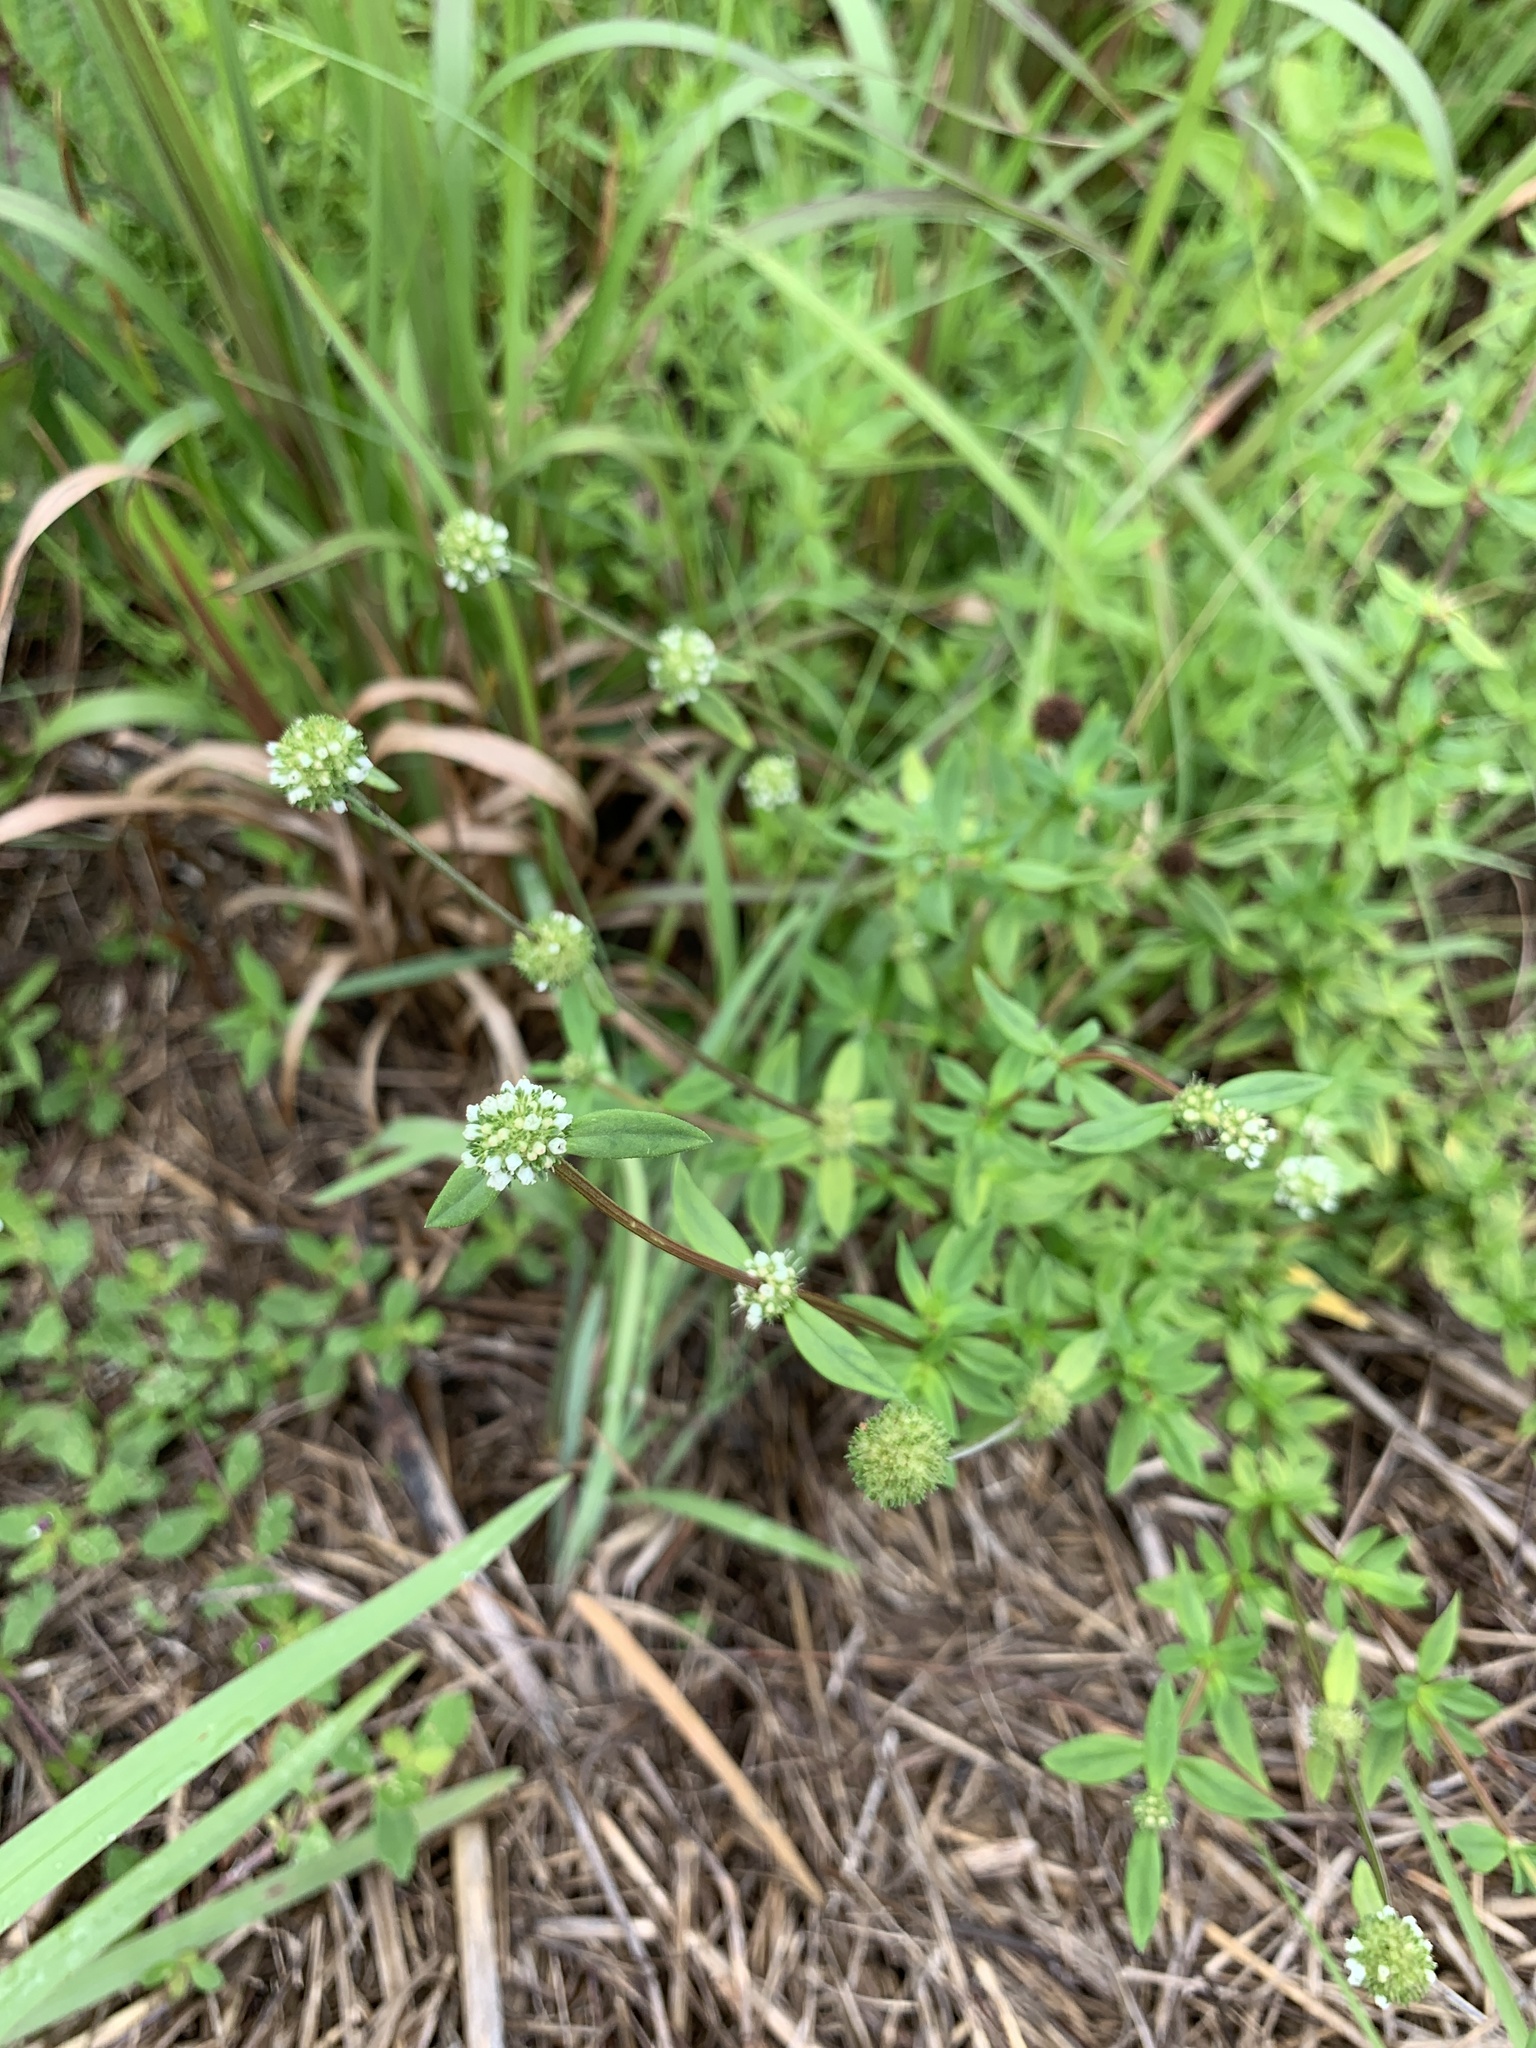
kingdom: Plantae
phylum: Tracheophyta
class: Magnoliopsida
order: Gentianales
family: Rubiaceae
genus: Spermacoce
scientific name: Spermacoce verticillata
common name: Shrubby false buttonweed
